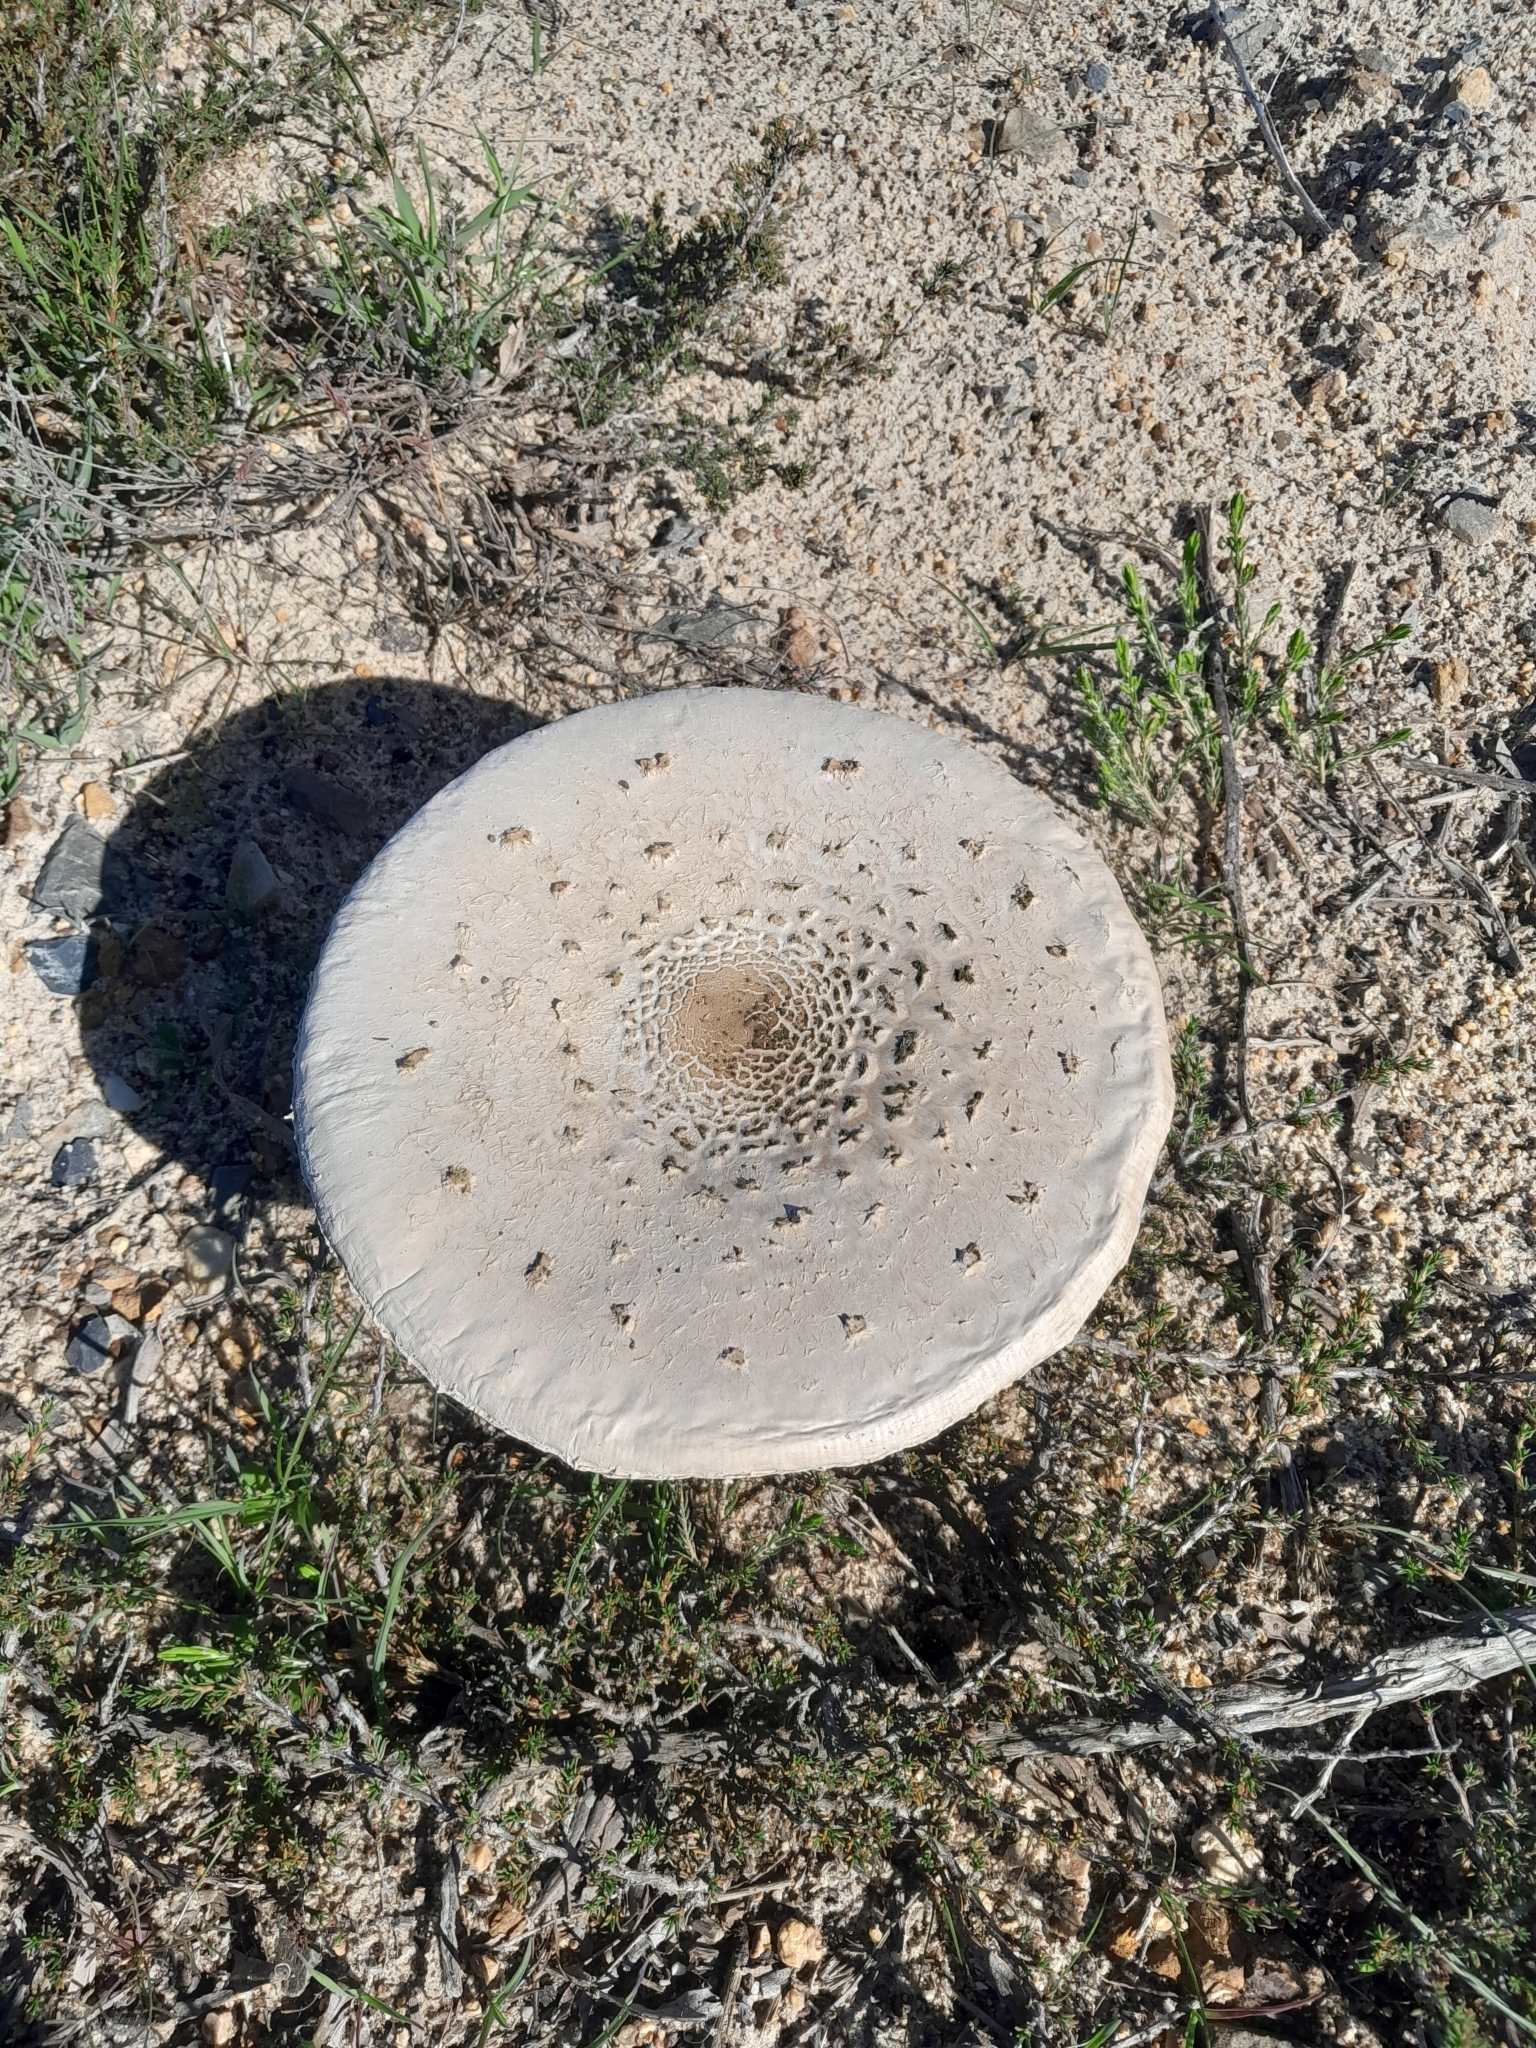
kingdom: Fungi
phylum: Basidiomycota
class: Agaricomycetes
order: Agaricales
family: Agaricaceae
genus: Macrolepiota
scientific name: Macrolepiota zeyheri
